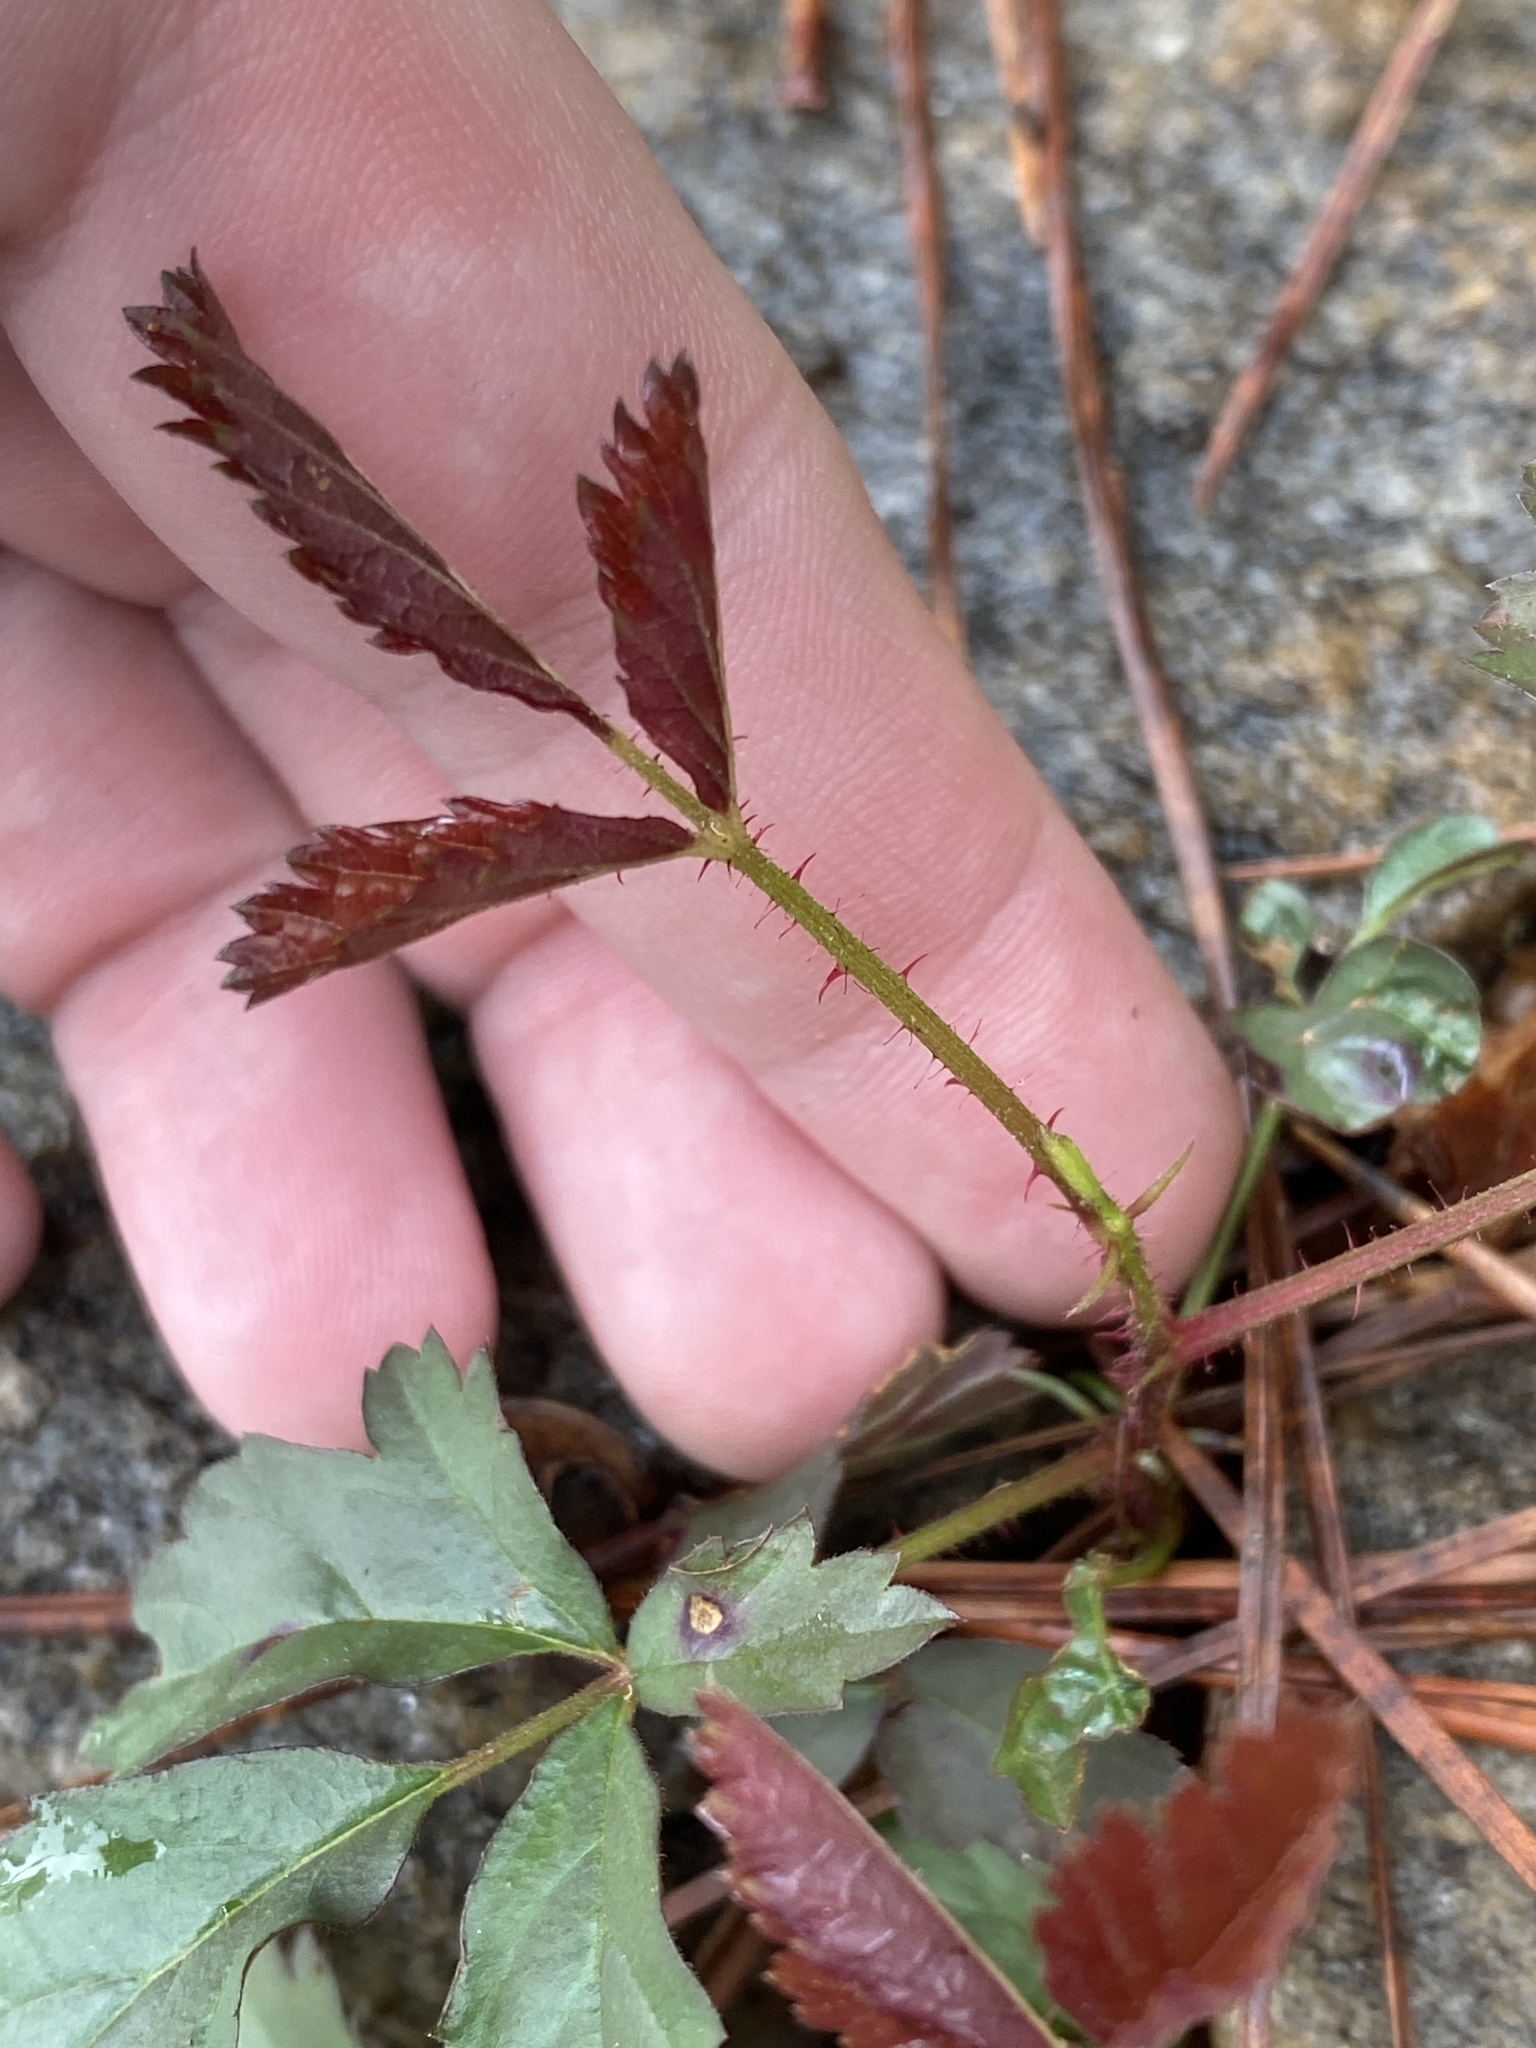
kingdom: Plantae
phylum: Tracheophyta
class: Magnoliopsida
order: Rosales
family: Rosaceae
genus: Rubus
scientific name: Rubus trivialis
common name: Southern dewberry
